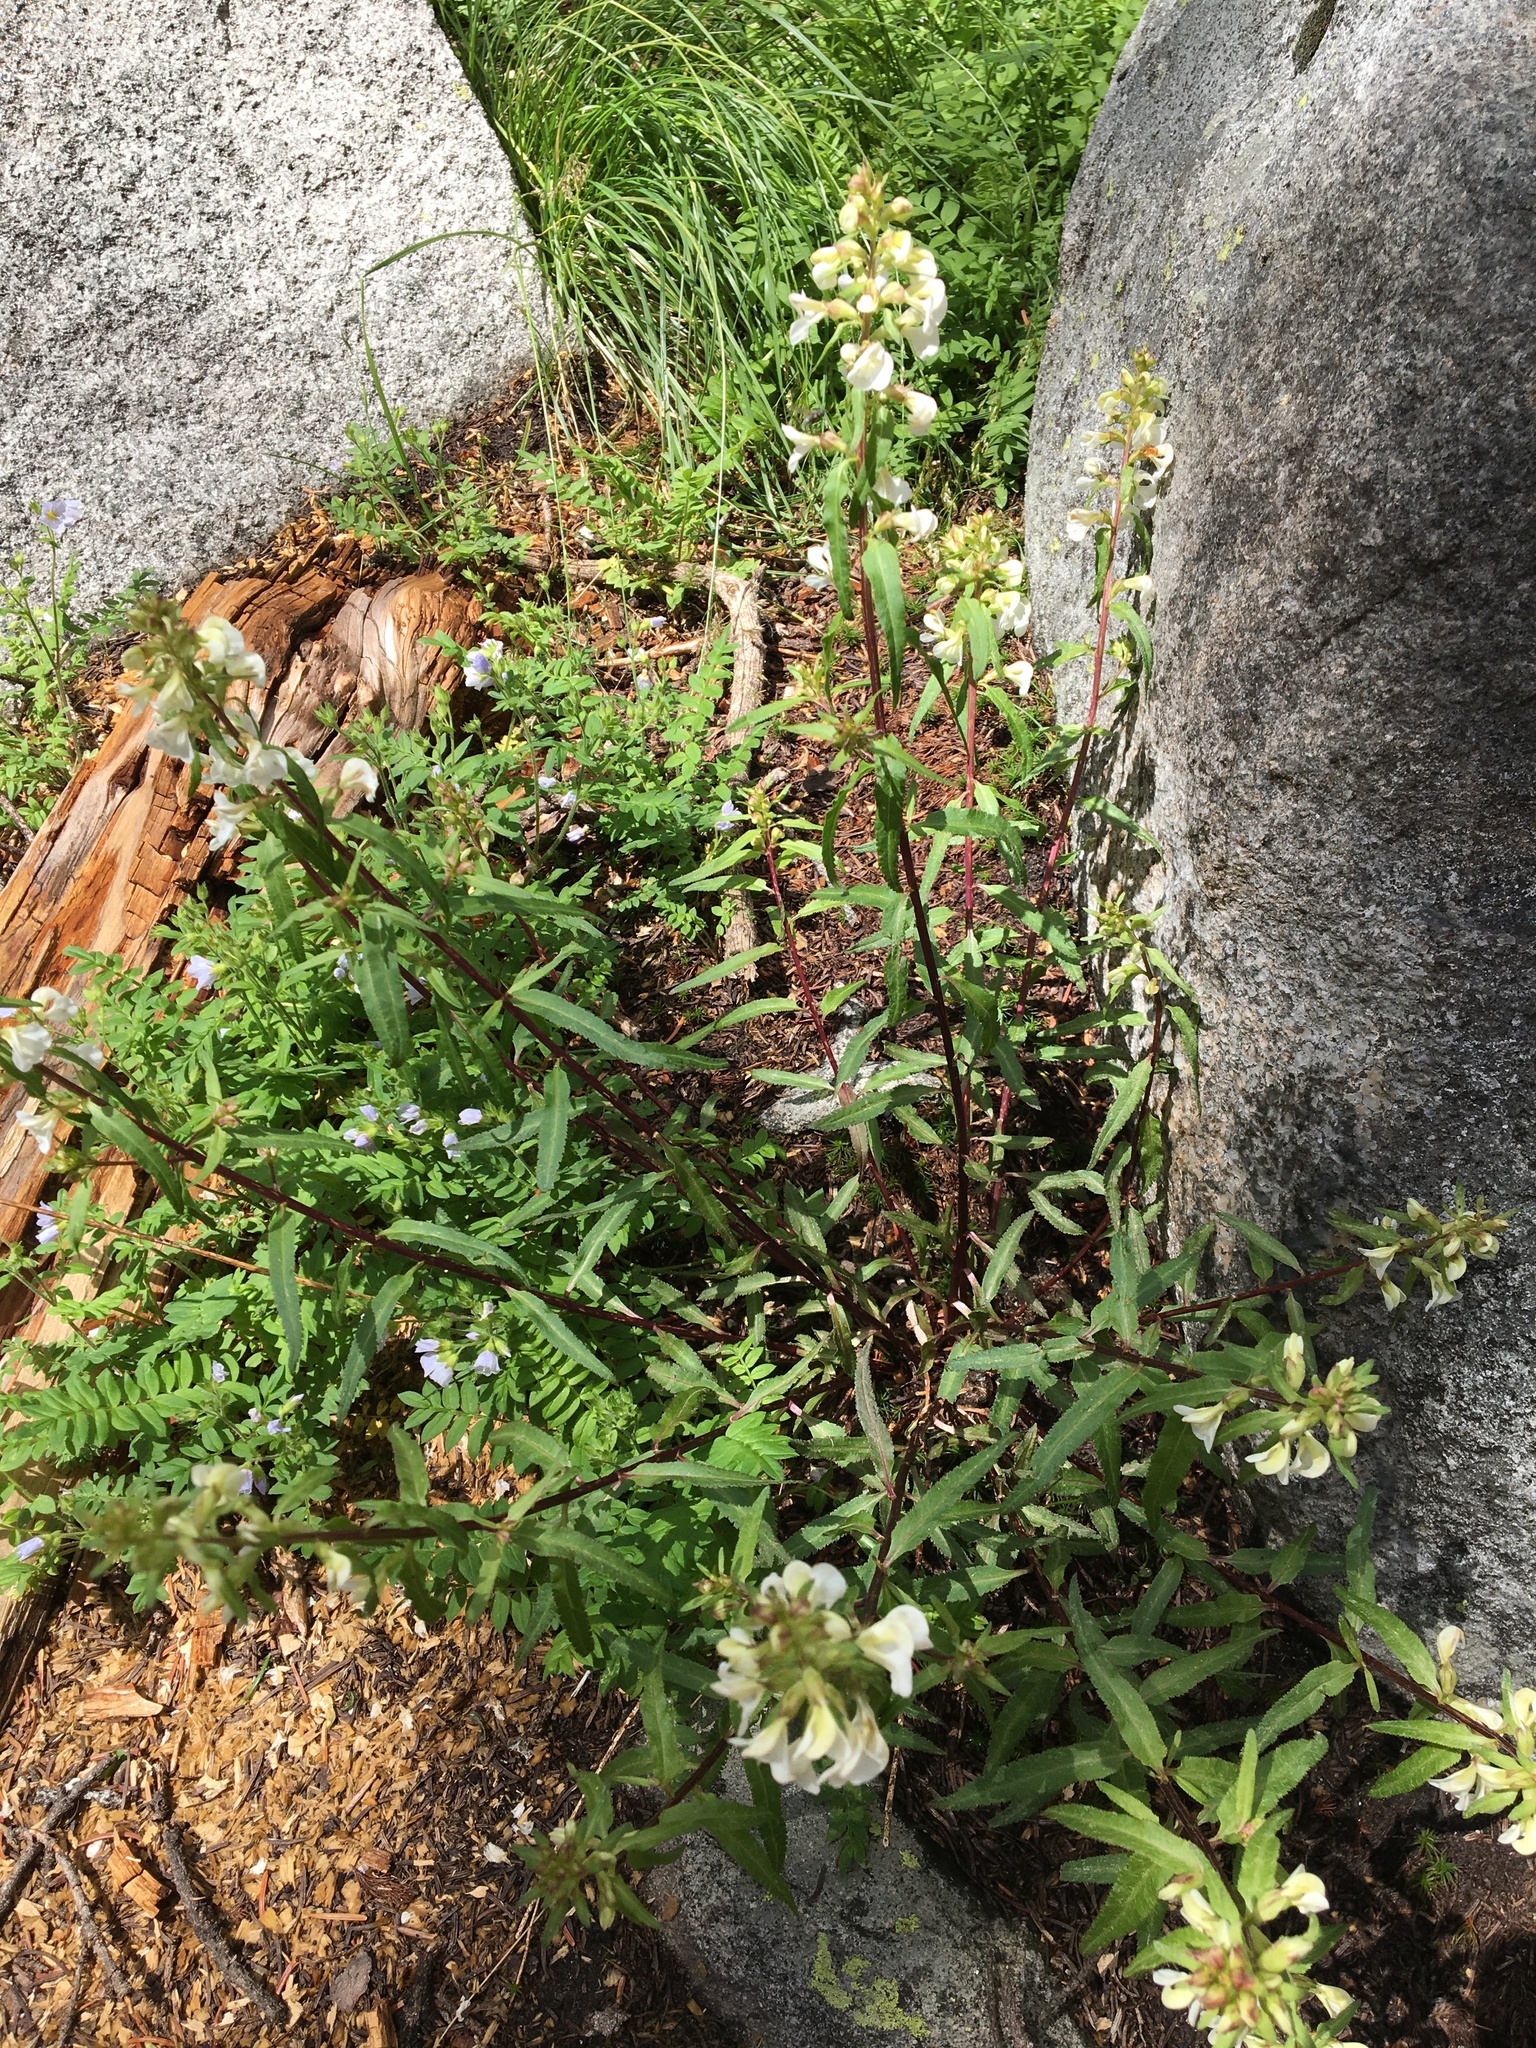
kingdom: Plantae
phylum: Tracheophyta
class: Magnoliopsida
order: Lamiales
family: Orobanchaceae
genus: Pedicularis
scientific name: Pedicularis racemosa
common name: Leafy lousewort
